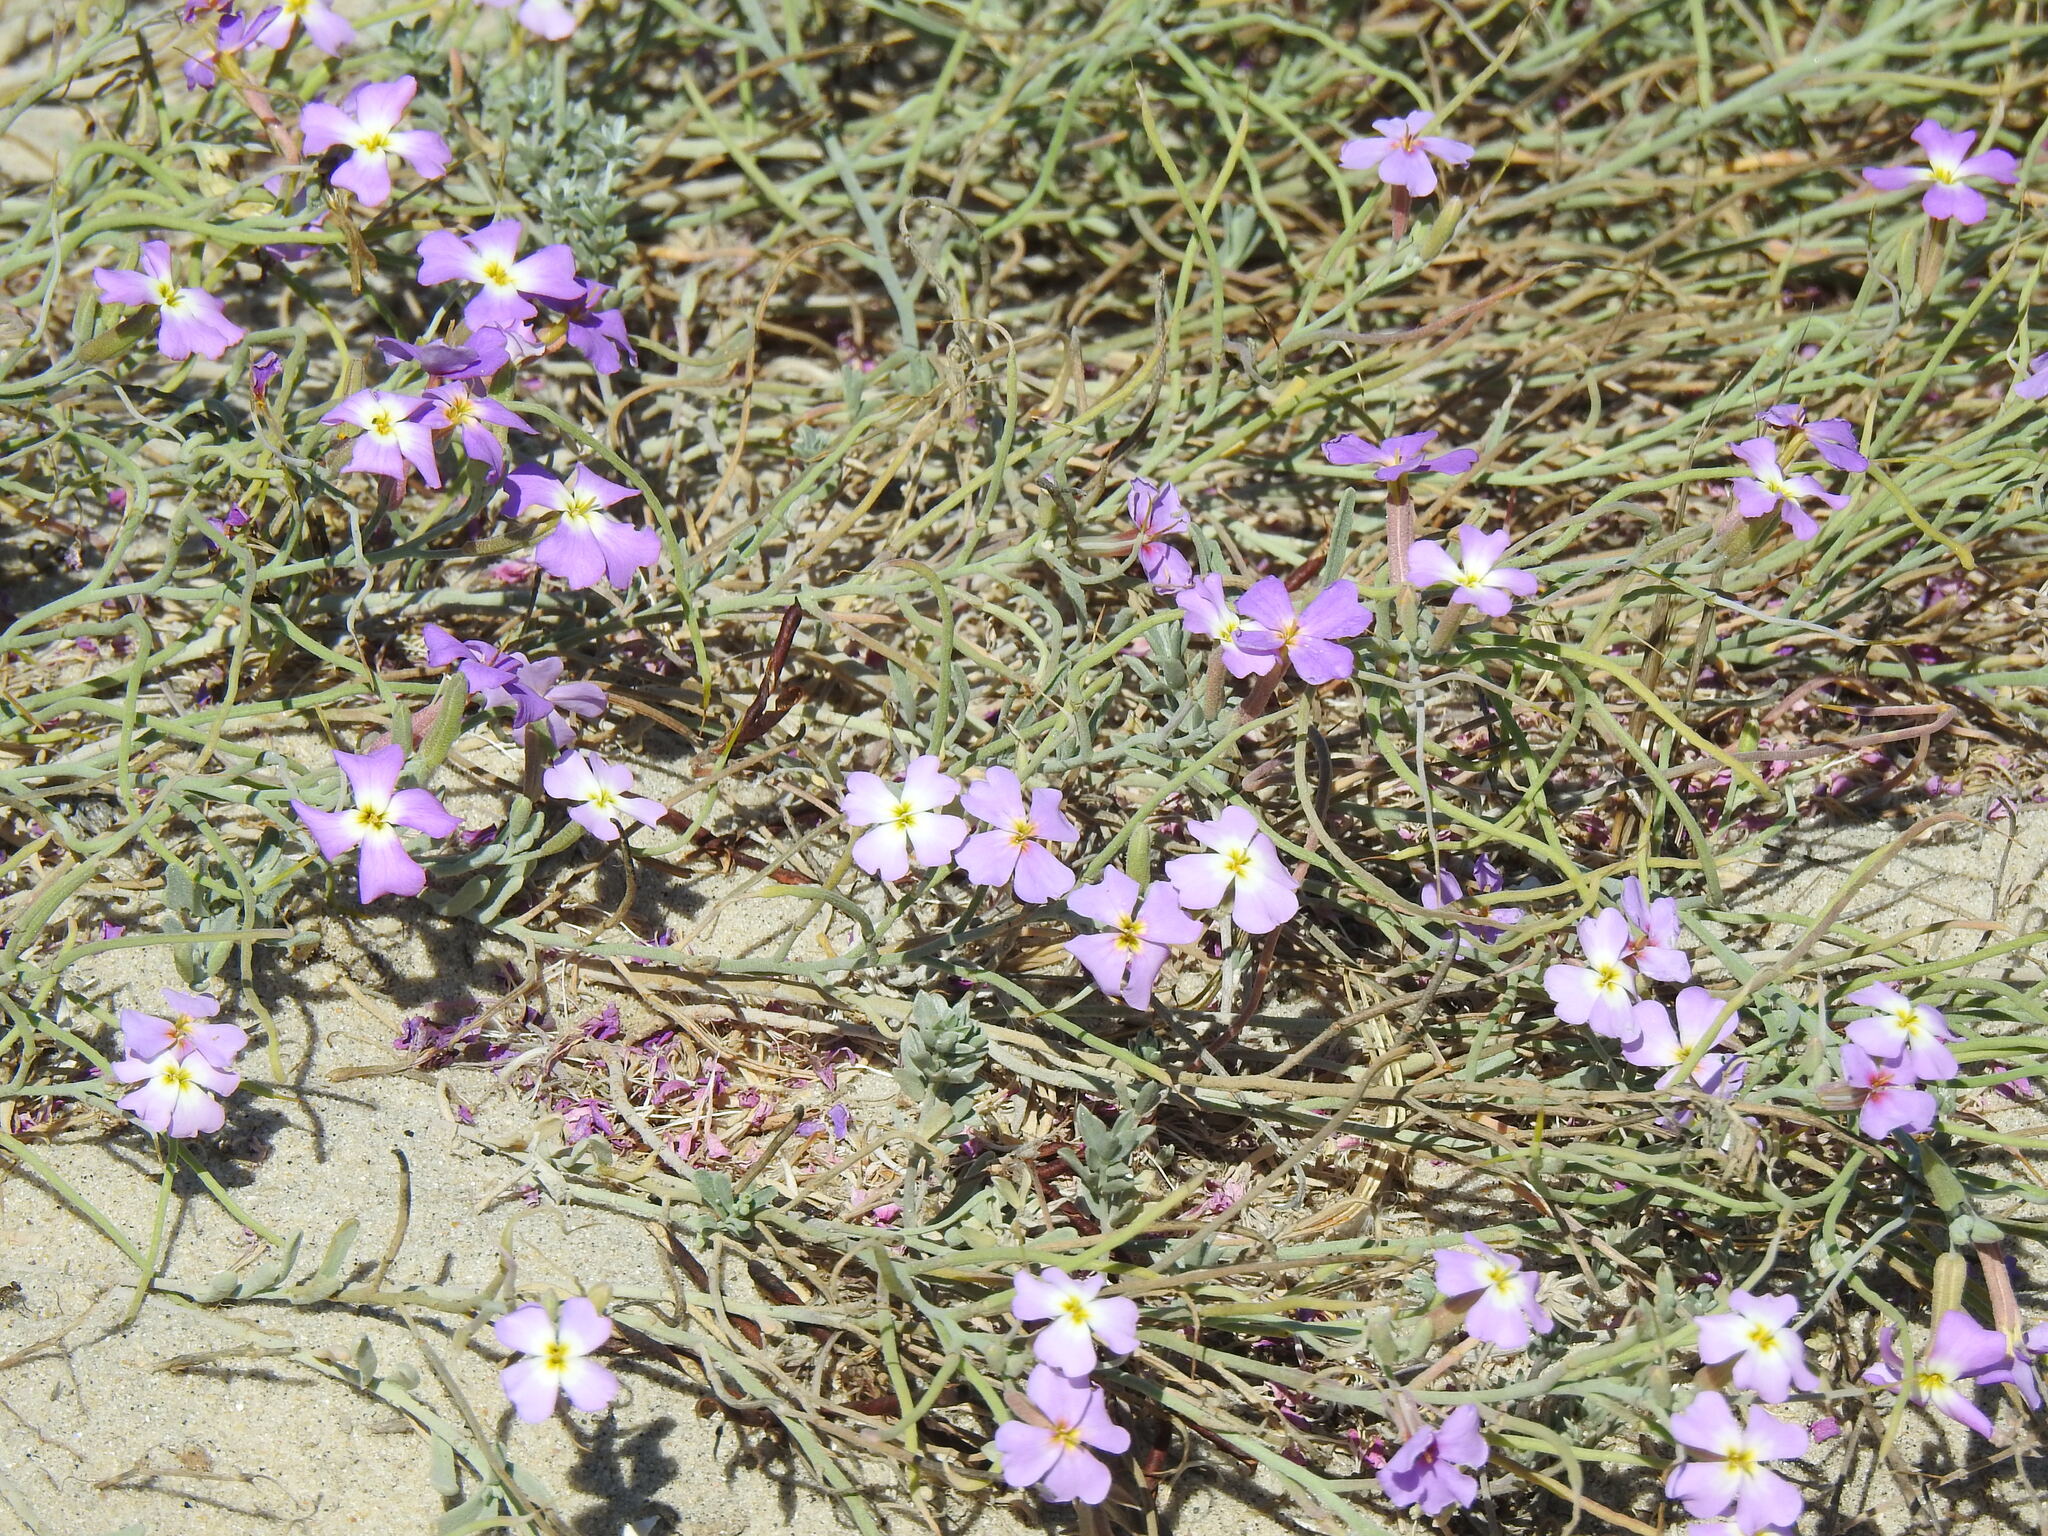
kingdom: Plantae
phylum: Tracheophyta
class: Magnoliopsida
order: Brassicales
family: Brassicaceae
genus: Marcuskochia
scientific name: Marcuskochia littorea
